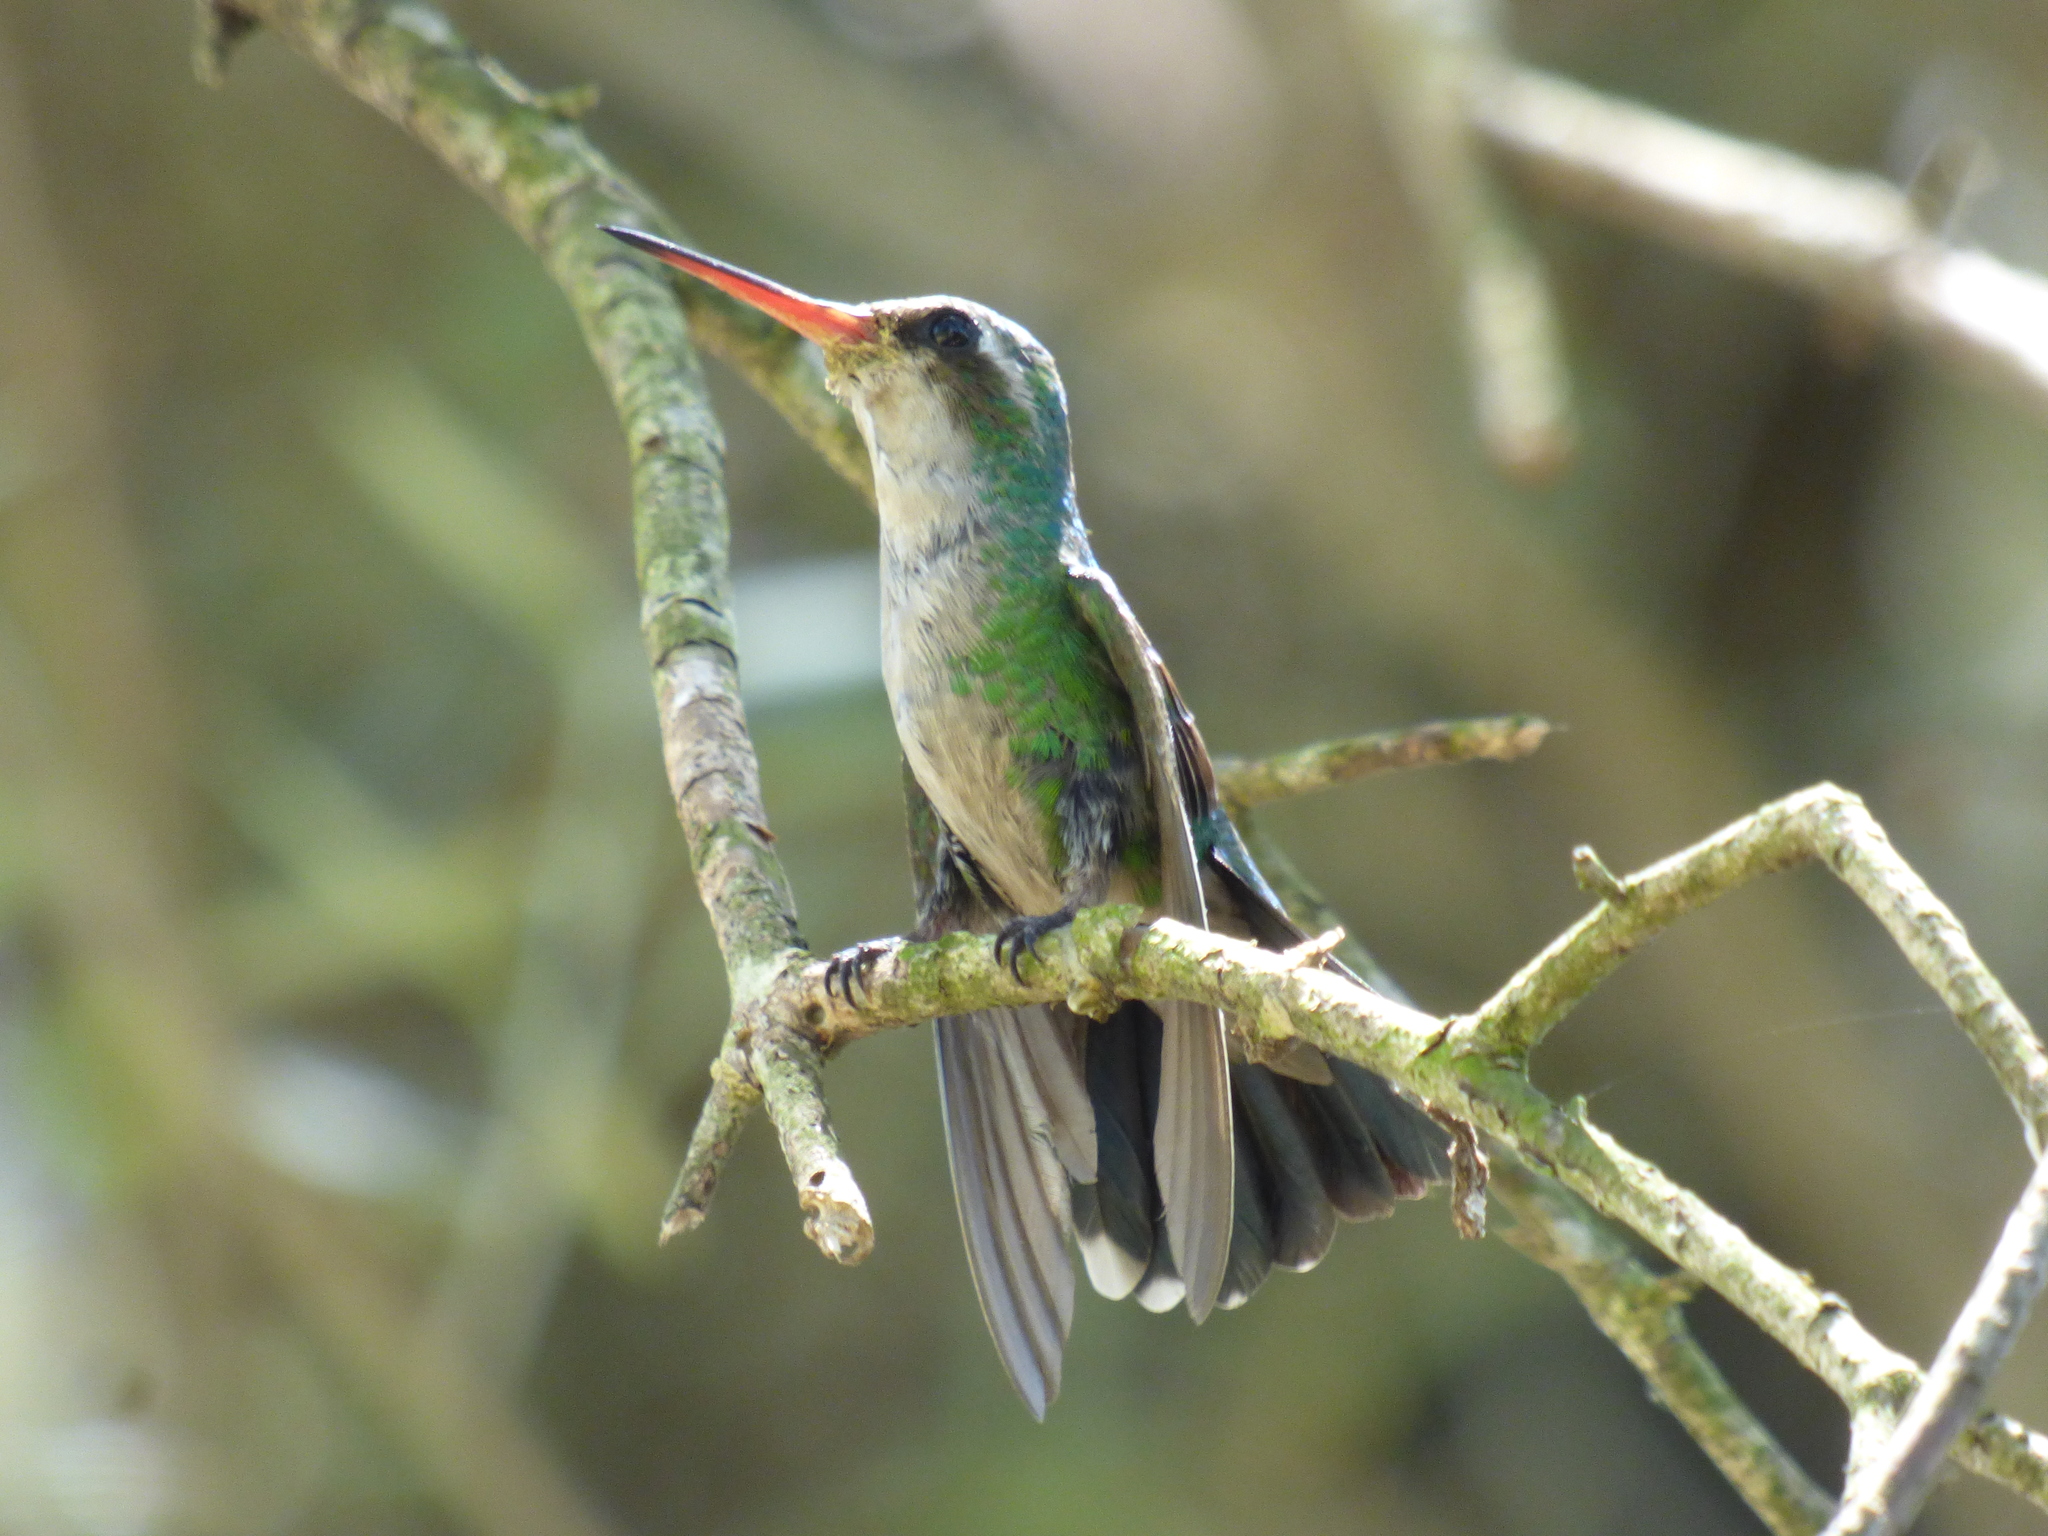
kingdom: Animalia
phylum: Chordata
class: Aves
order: Apodiformes
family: Trochilidae
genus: Chlorostilbon
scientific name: Chlorostilbon lucidus
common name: Glittering-bellied emerald
